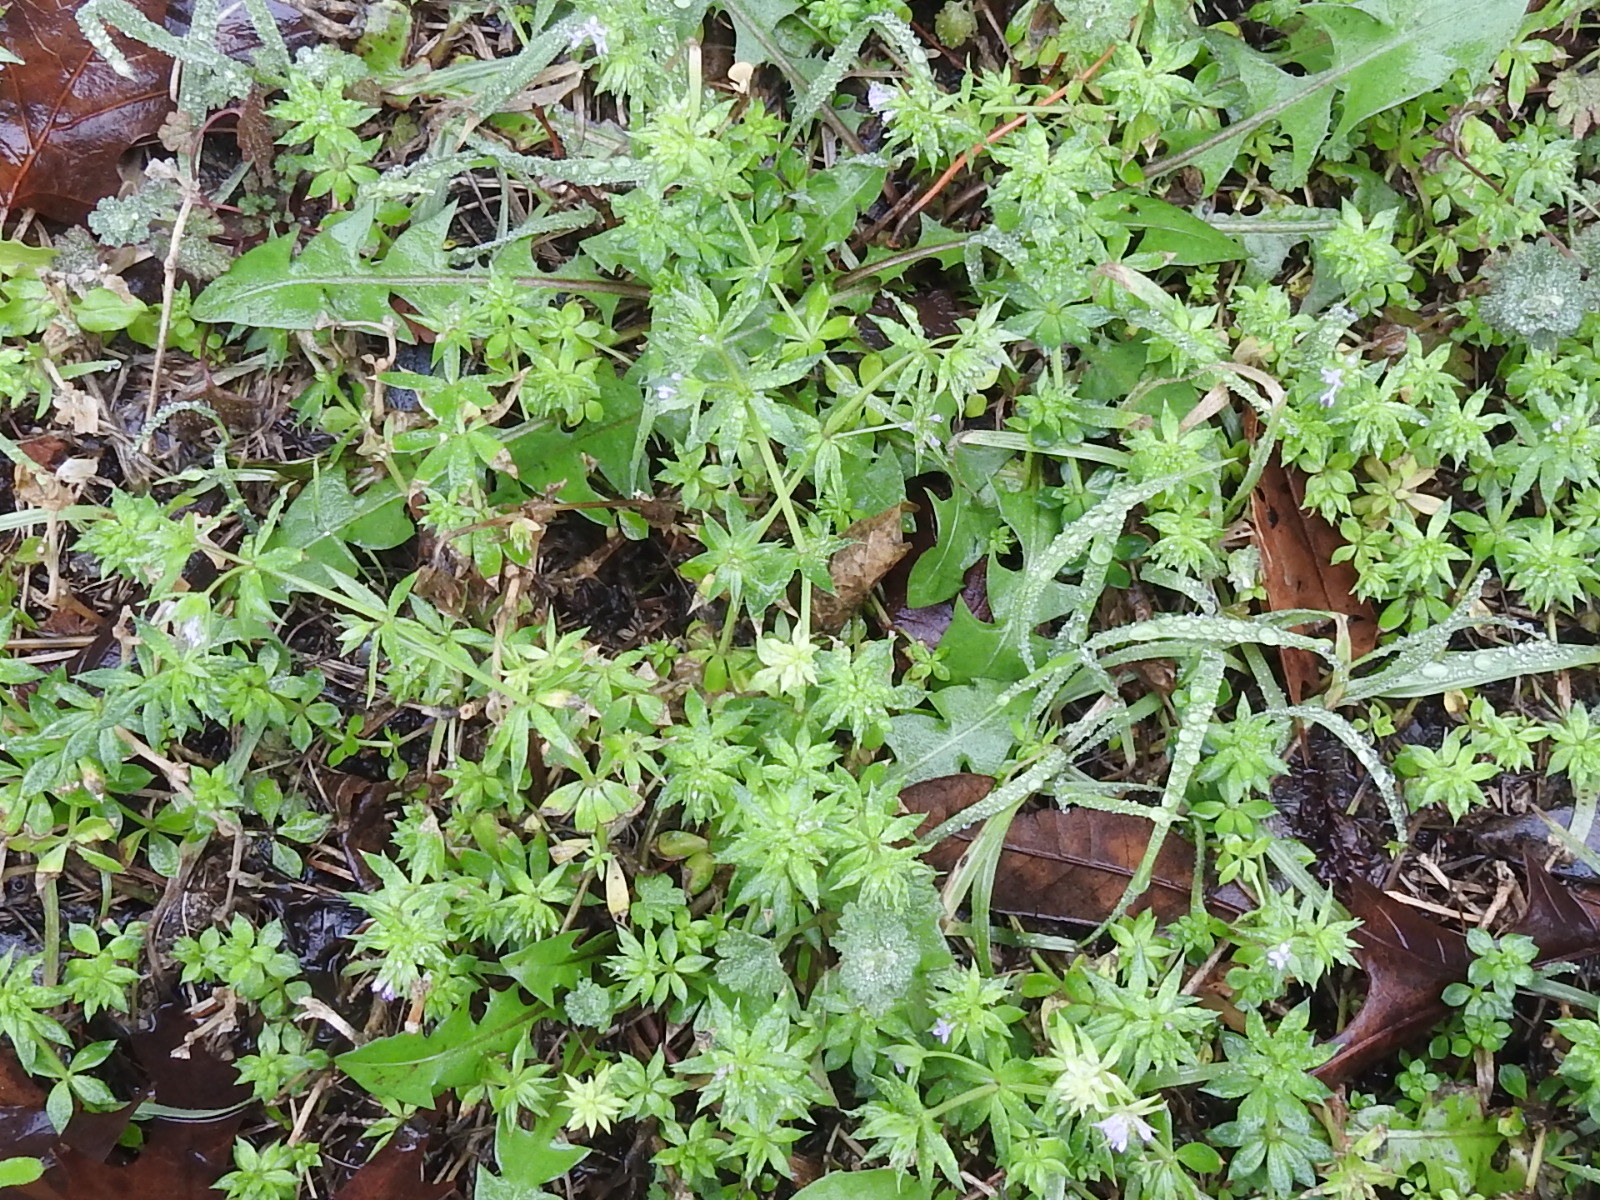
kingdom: Plantae
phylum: Tracheophyta
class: Magnoliopsida
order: Gentianales
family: Rubiaceae
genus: Sherardia
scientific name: Sherardia arvensis
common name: Field madder
